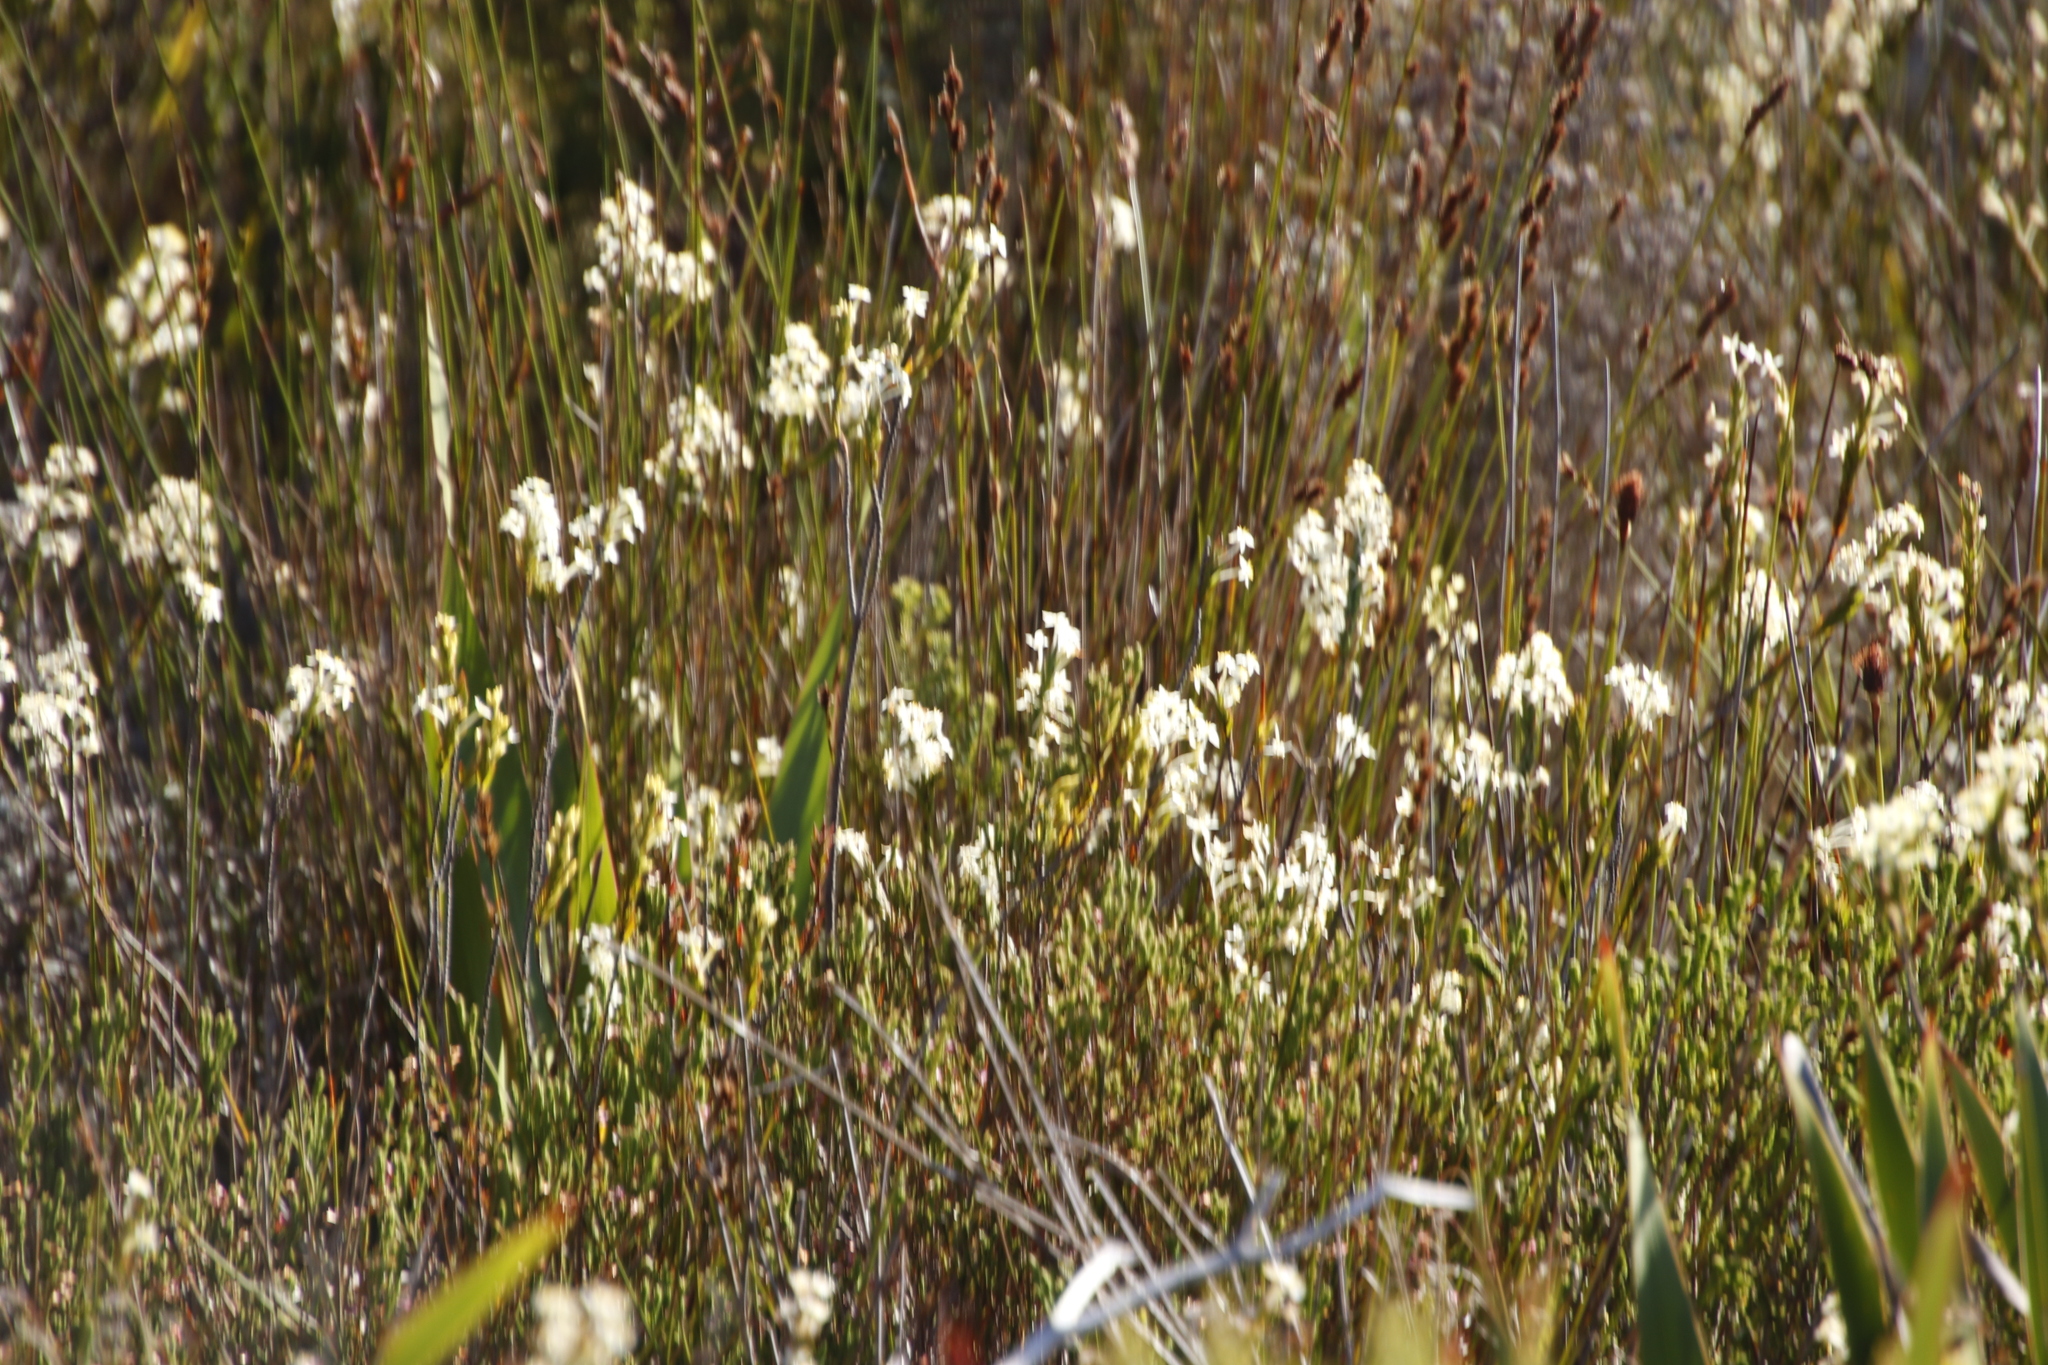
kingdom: Plantae
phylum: Tracheophyta
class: Magnoliopsida
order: Malvales
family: Thymelaeaceae
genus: Struthiola
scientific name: Struthiola ciliata
